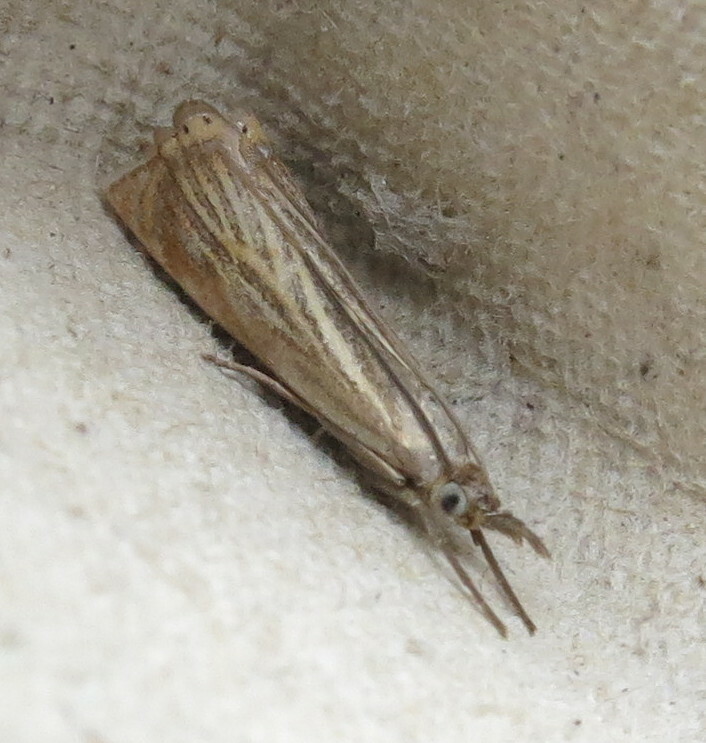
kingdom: Animalia
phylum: Arthropoda
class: Insecta
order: Lepidoptera
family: Crambidae
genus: Chrysoteuchia
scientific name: Chrysoteuchia culmella
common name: Garden grass-veneer
